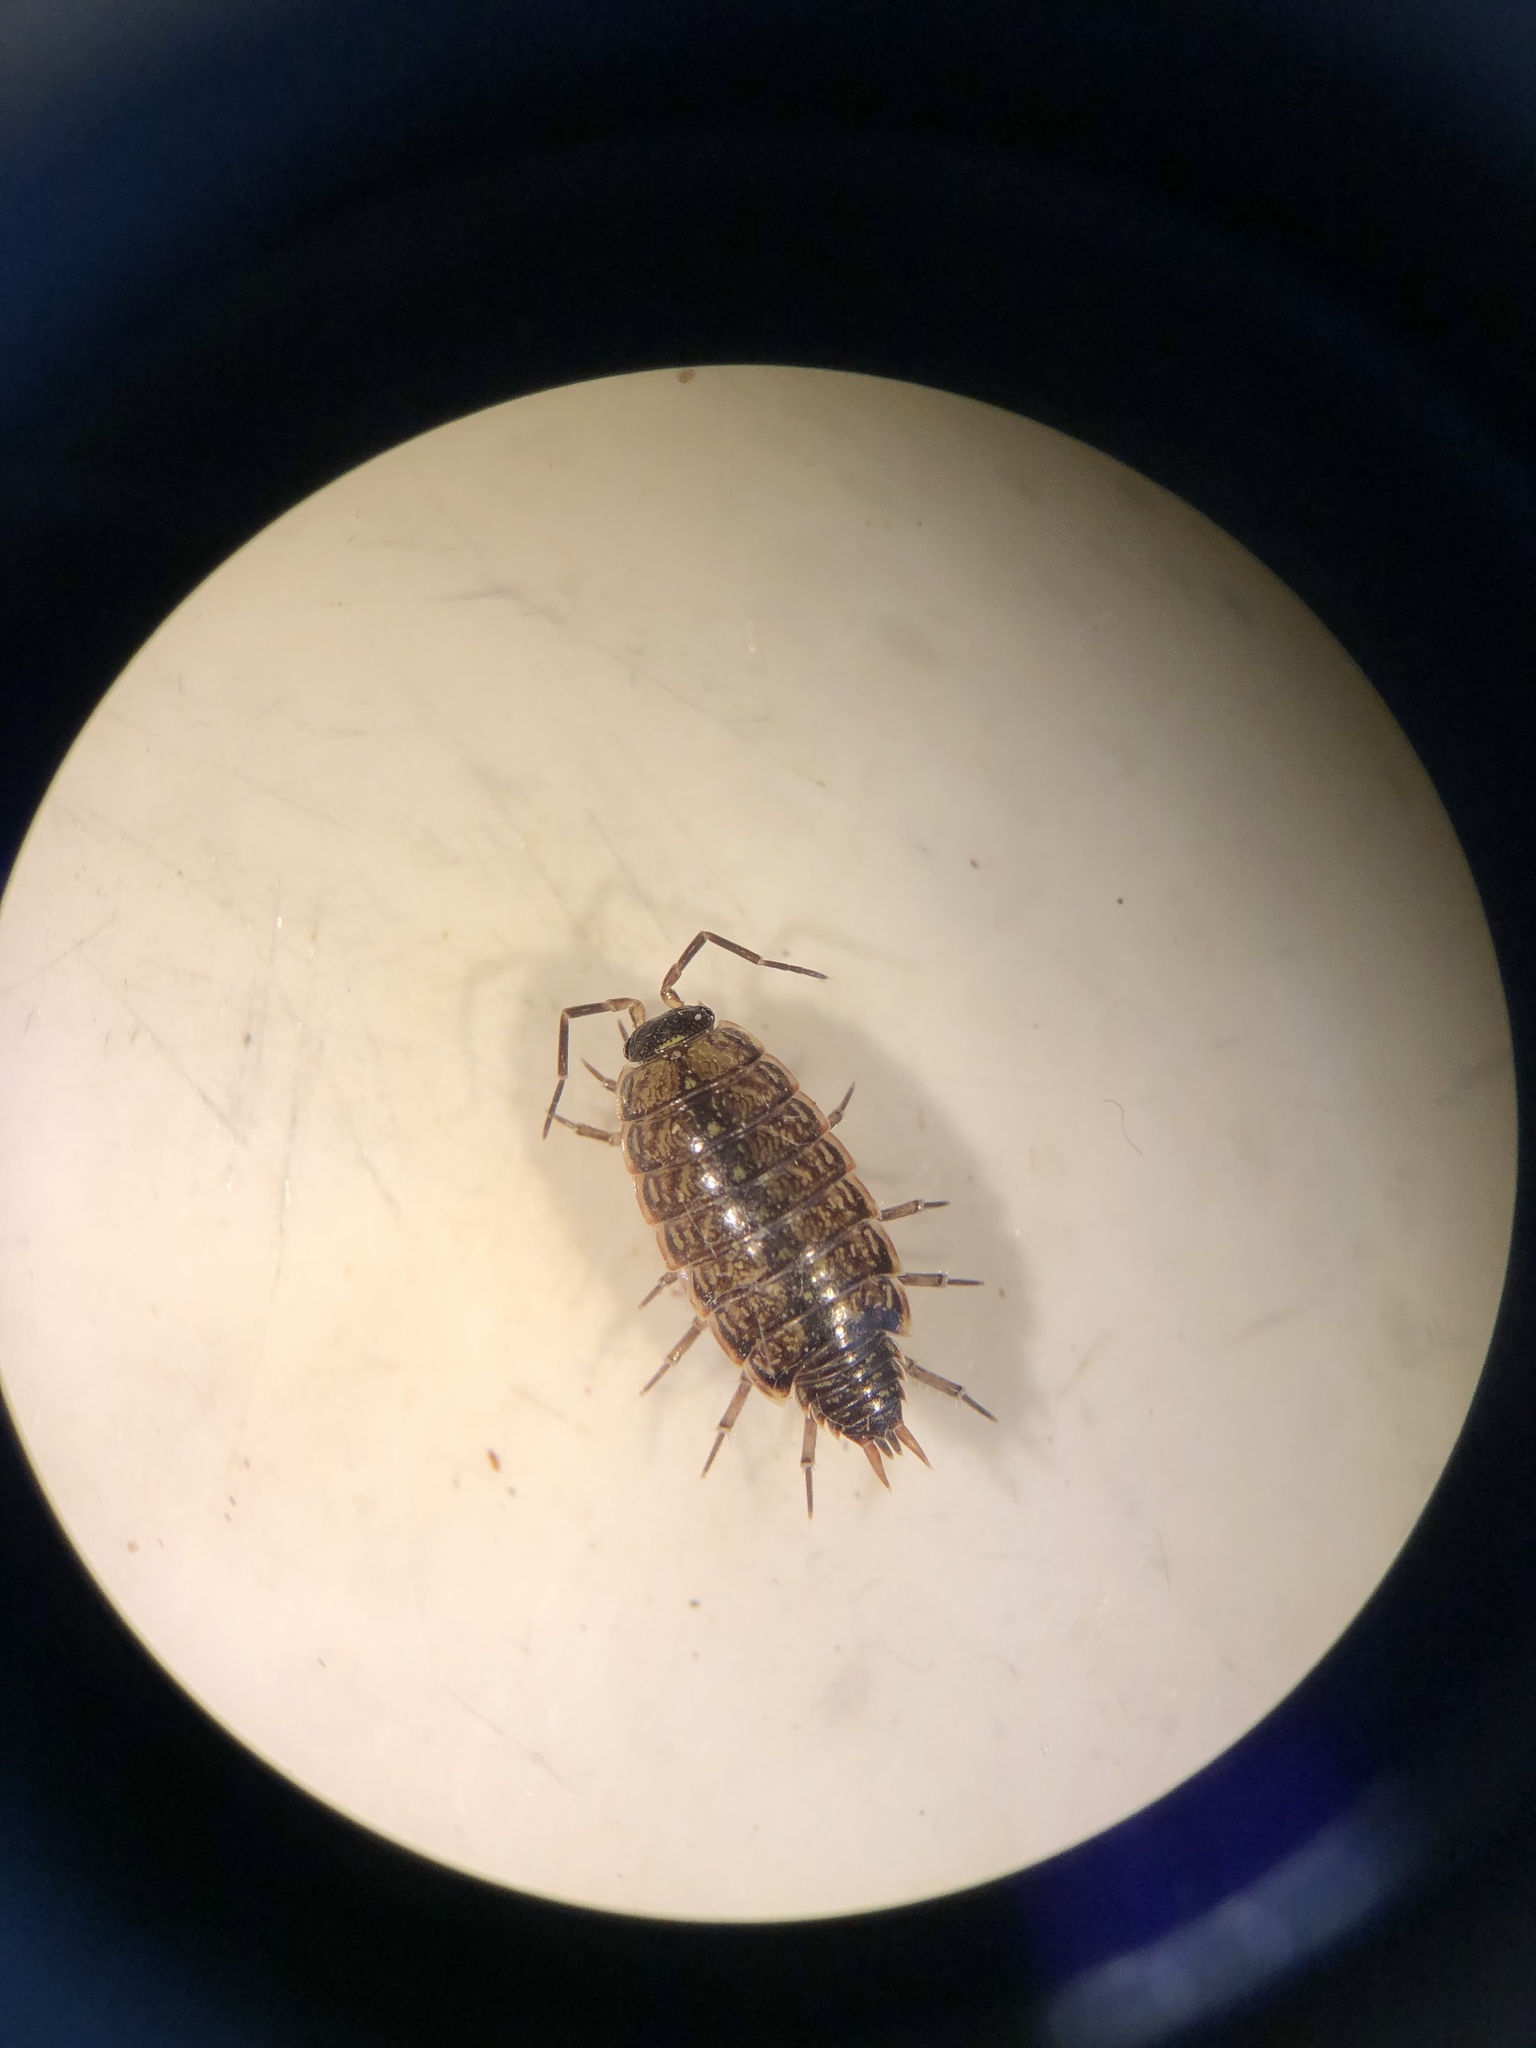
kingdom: Animalia
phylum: Arthropoda
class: Malacostraca
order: Isopoda
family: Philosciidae
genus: Philoscia
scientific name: Philoscia muscorum
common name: Common striped woodlouse
